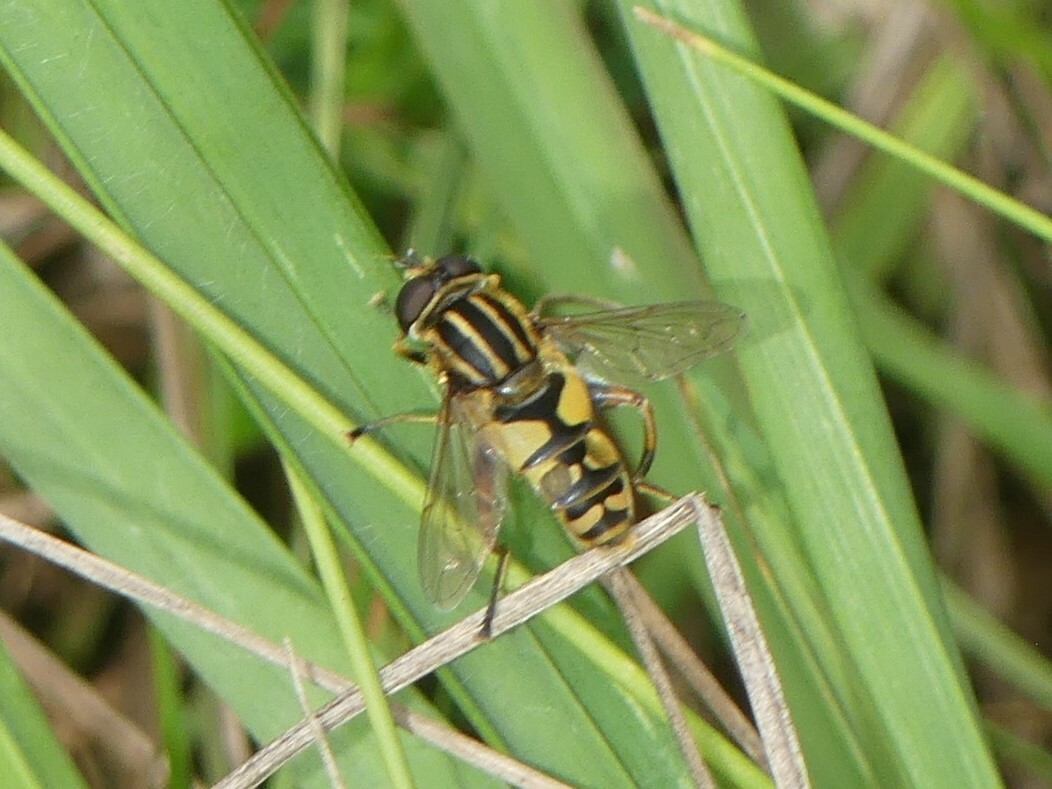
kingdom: Animalia
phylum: Arthropoda
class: Insecta
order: Diptera
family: Syrphidae
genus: Helophilus
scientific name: Helophilus pendulus
